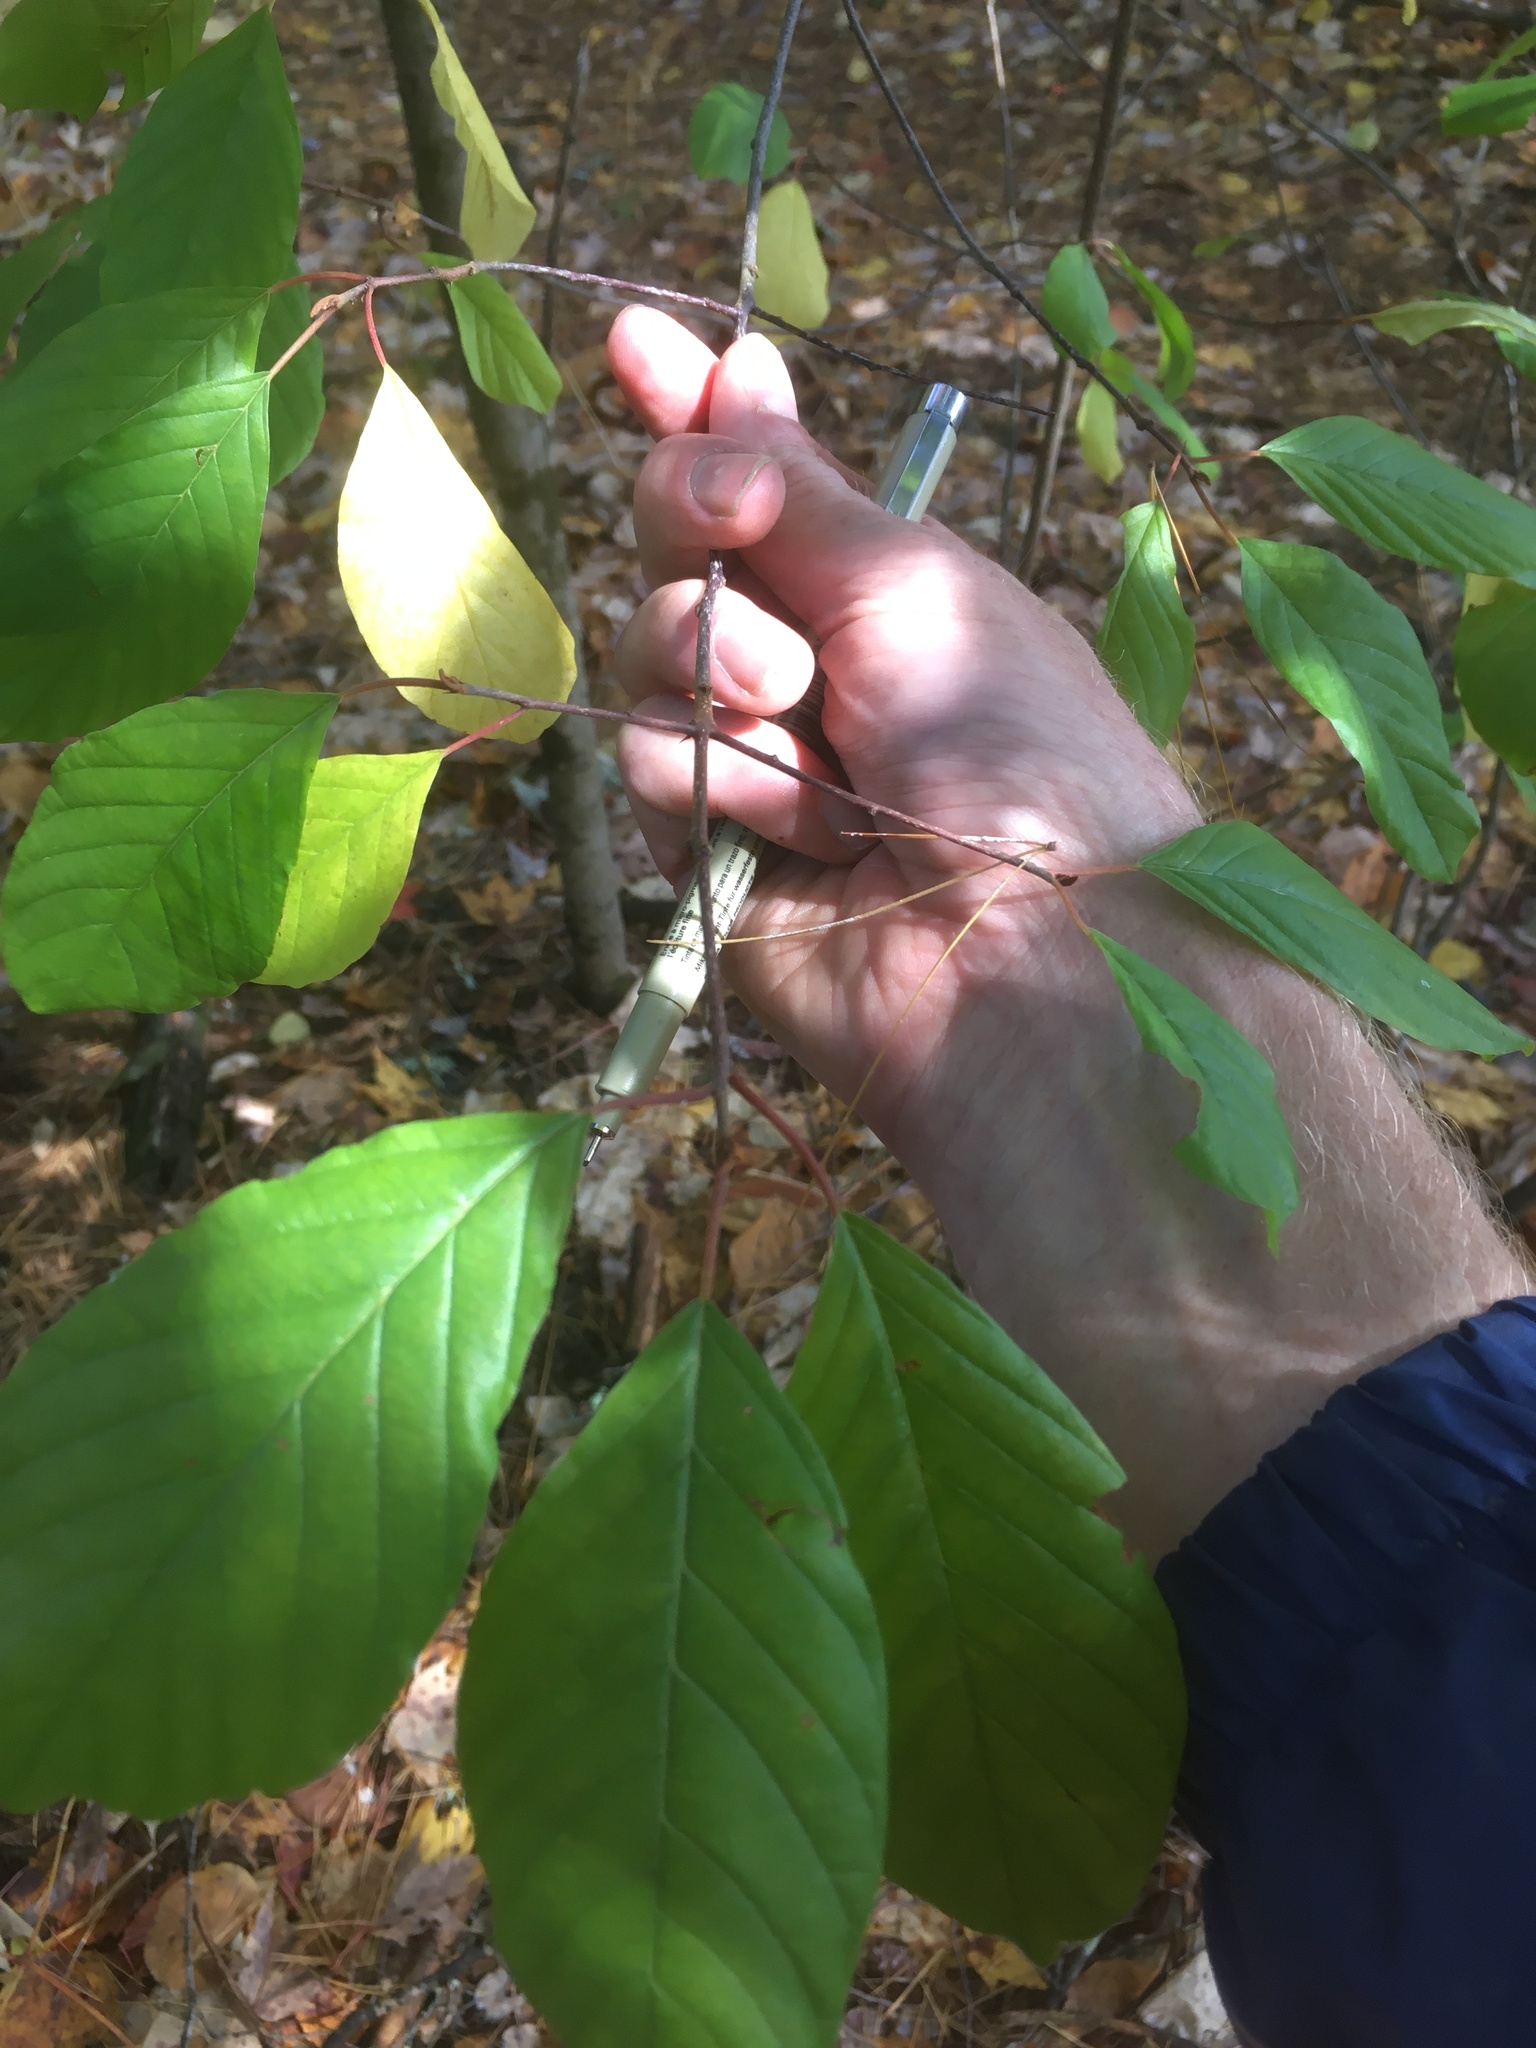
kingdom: Plantae
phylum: Tracheophyta
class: Magnoliopsida
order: Rosales
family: Rhamnaceae
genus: Frangula
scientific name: Frangula alnus
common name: Alder buckthorn
